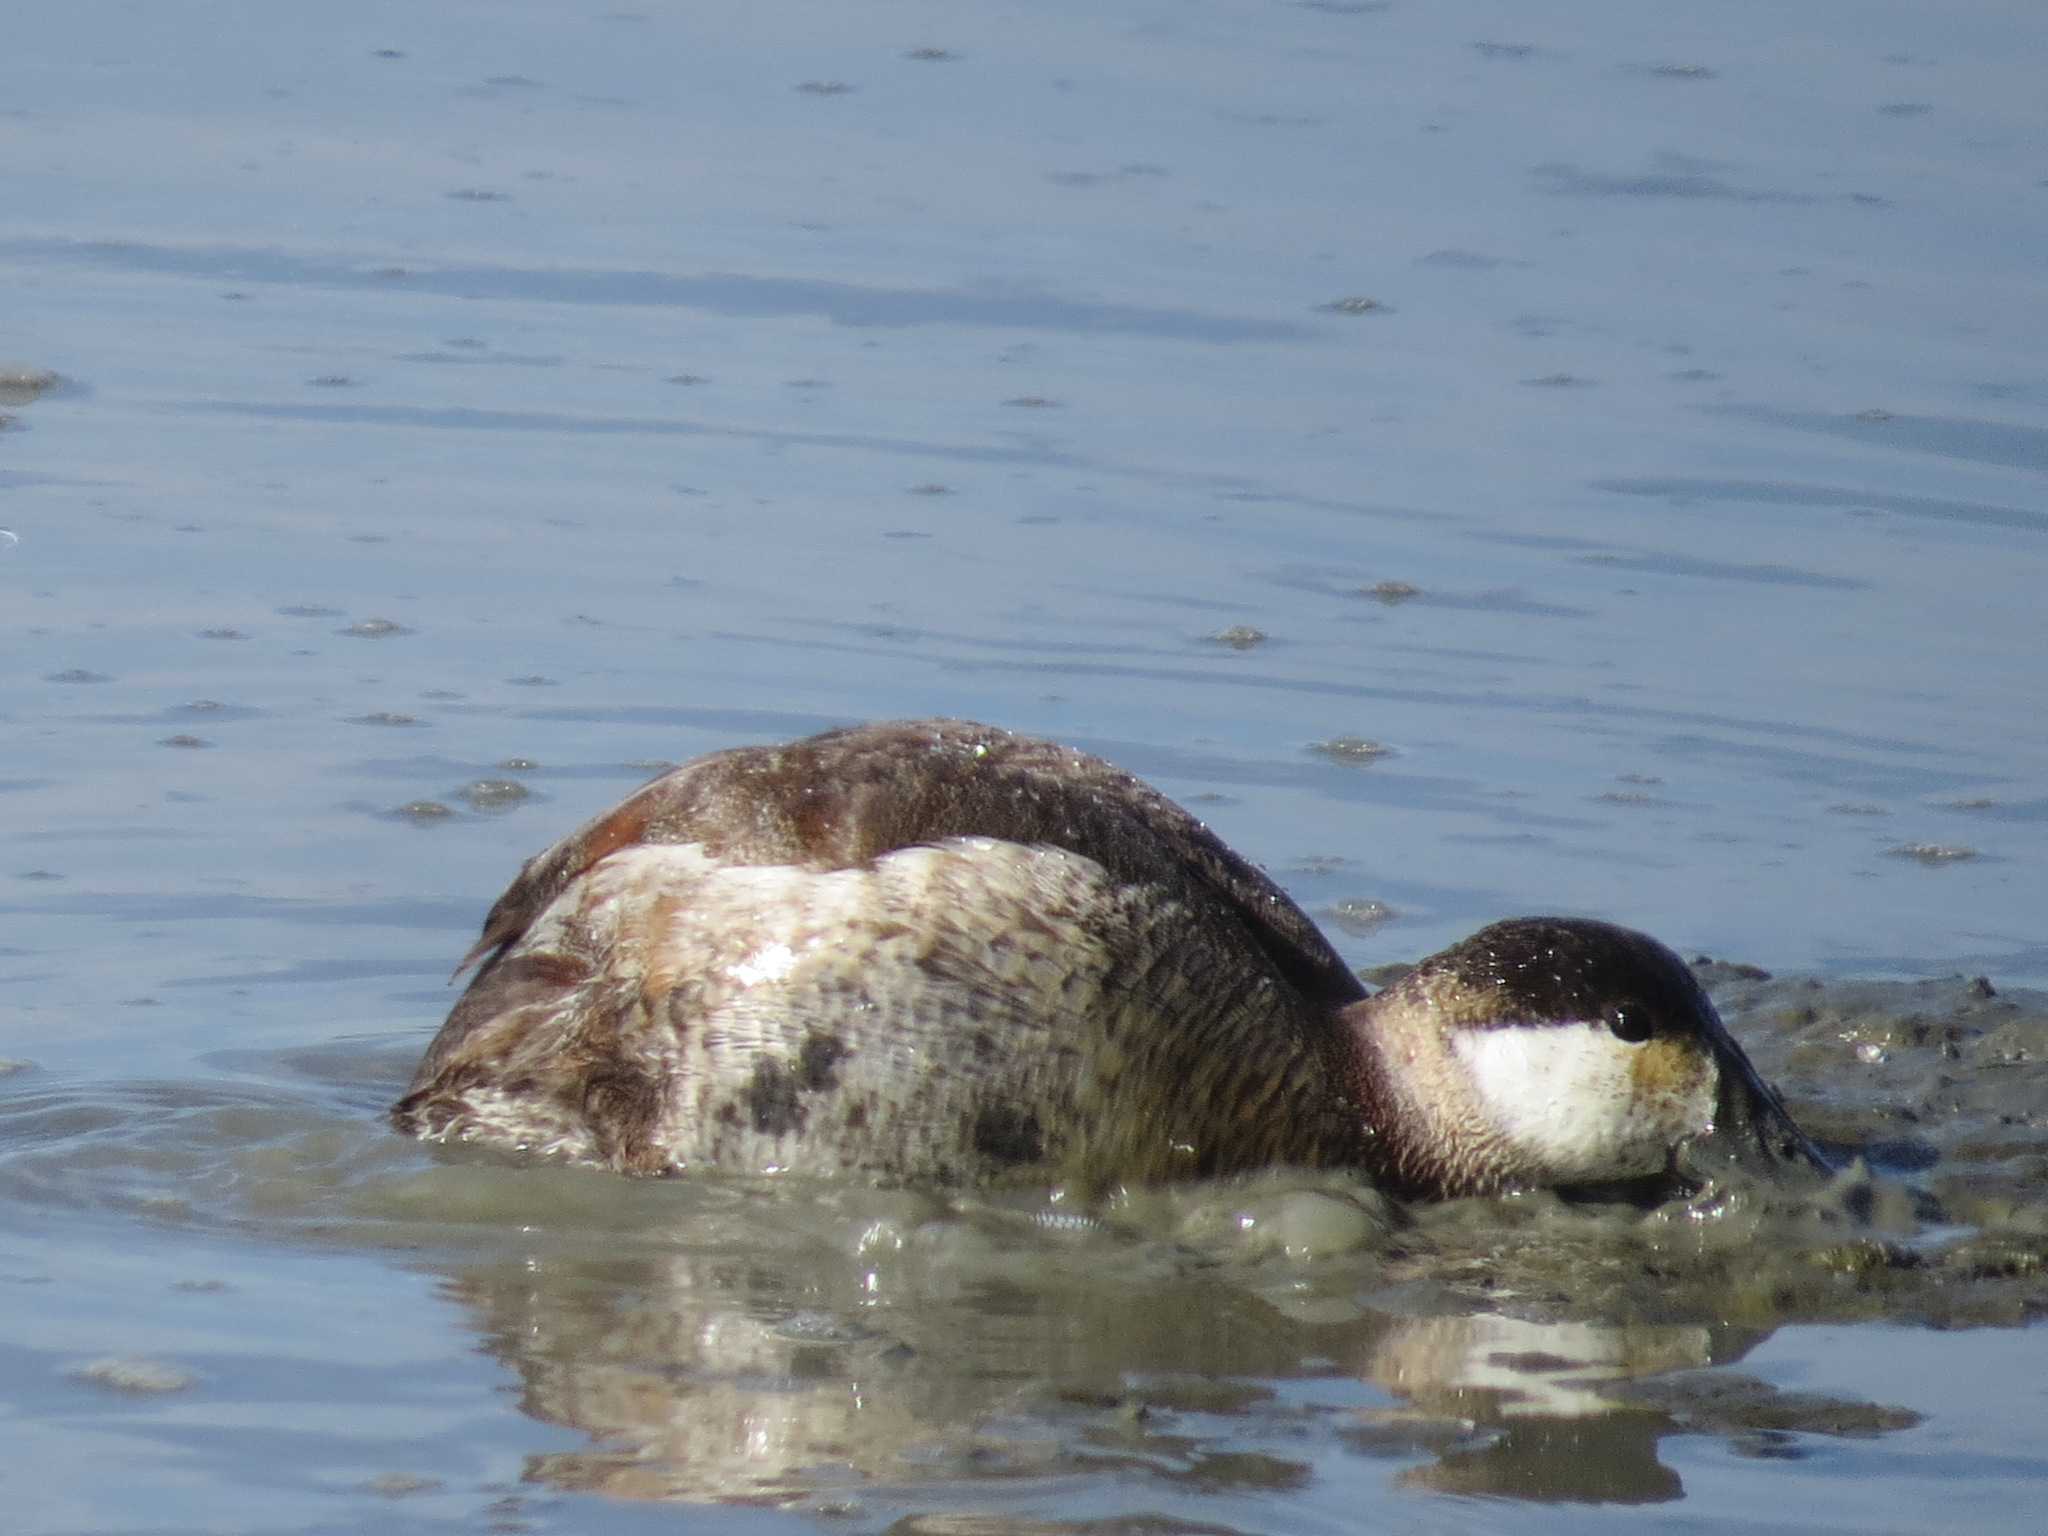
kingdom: Animalia
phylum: Chordata
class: Aves
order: Anseriformes
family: Anatidae
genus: Oxyura
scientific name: Oxyura jamaicensis
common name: Ruddy duck
